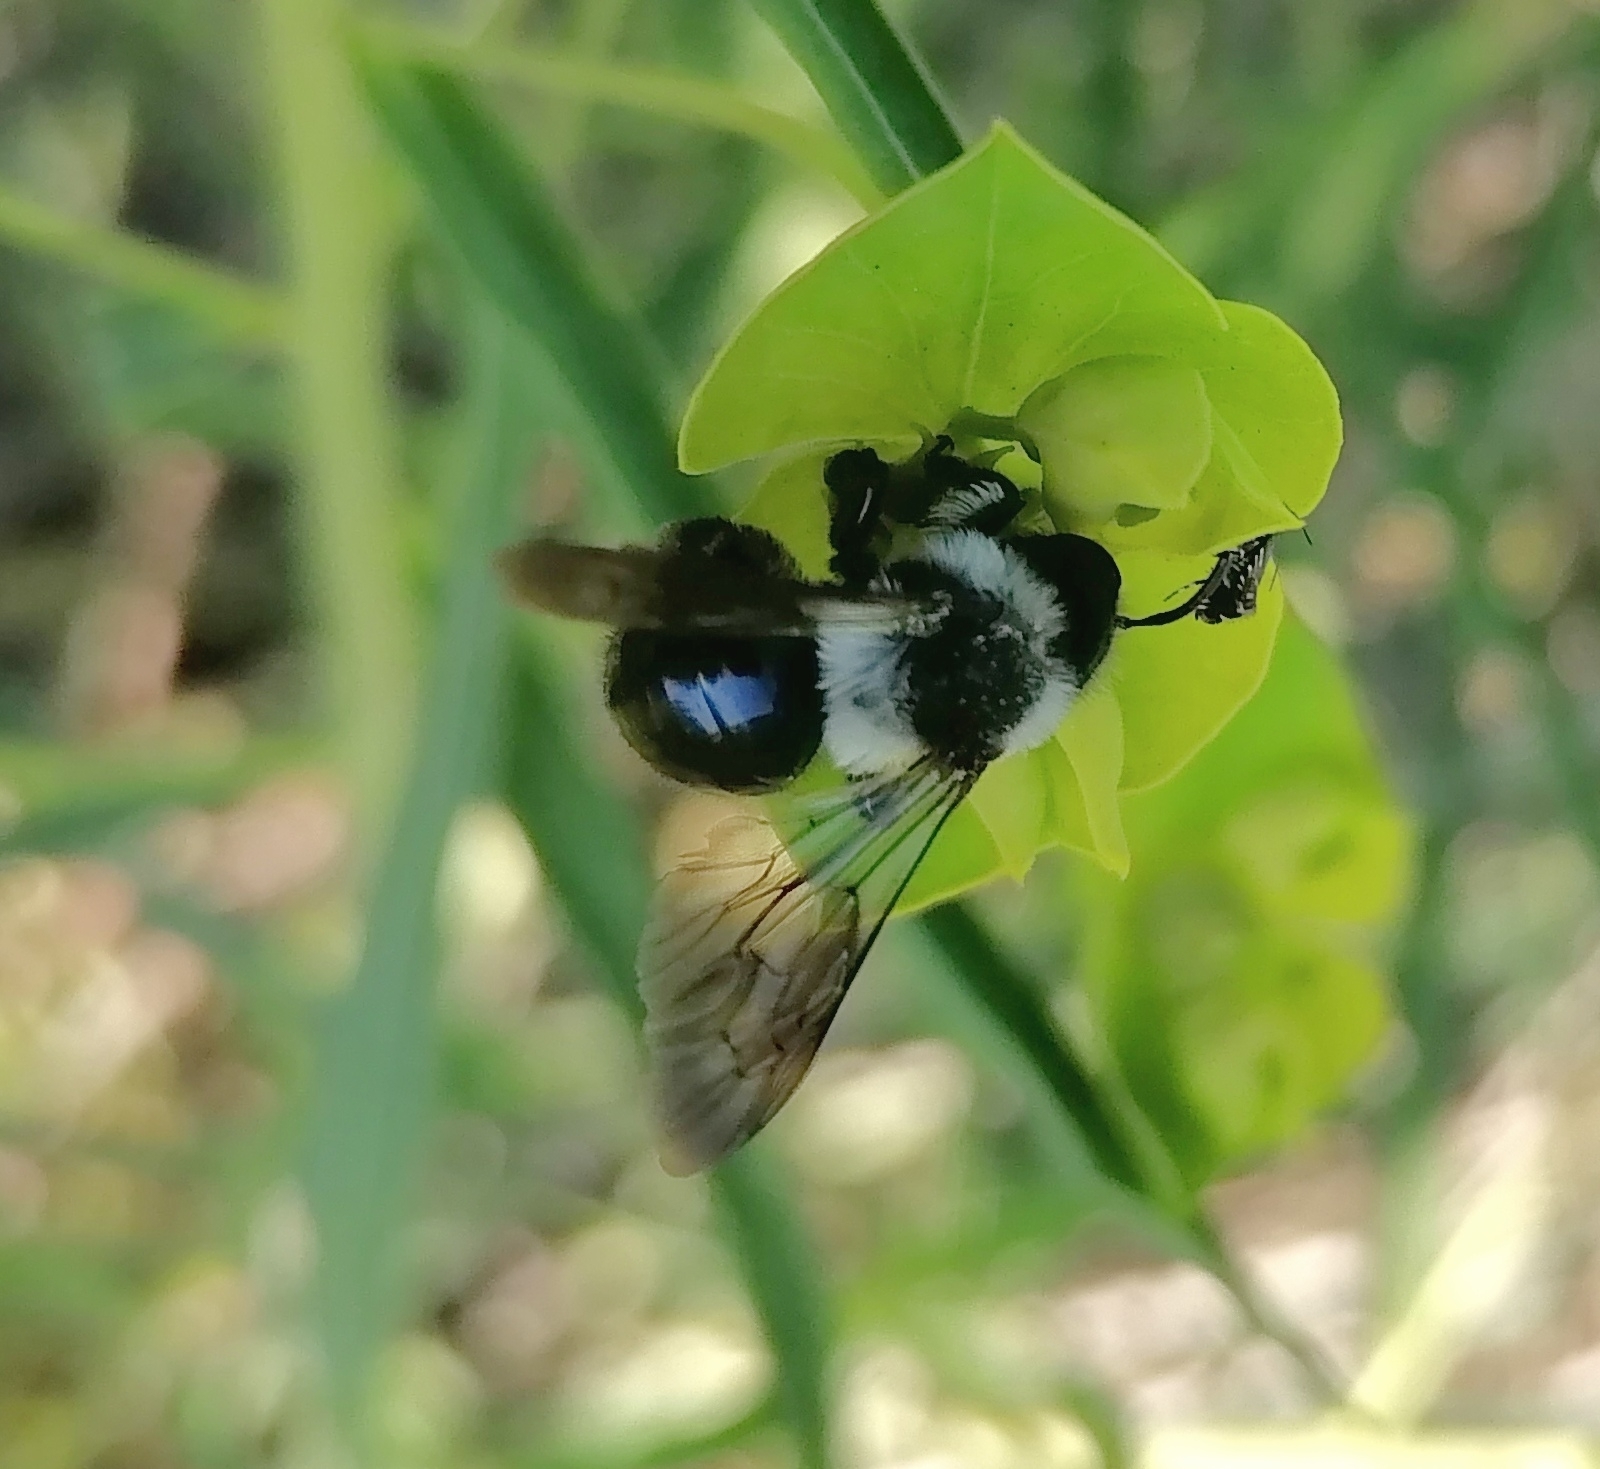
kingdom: Animalia
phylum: Arthropoda
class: Insecta
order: Hymenoptera
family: Andrenidae
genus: Andrena
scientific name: Andrena cineraria
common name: Ashy mining bee
